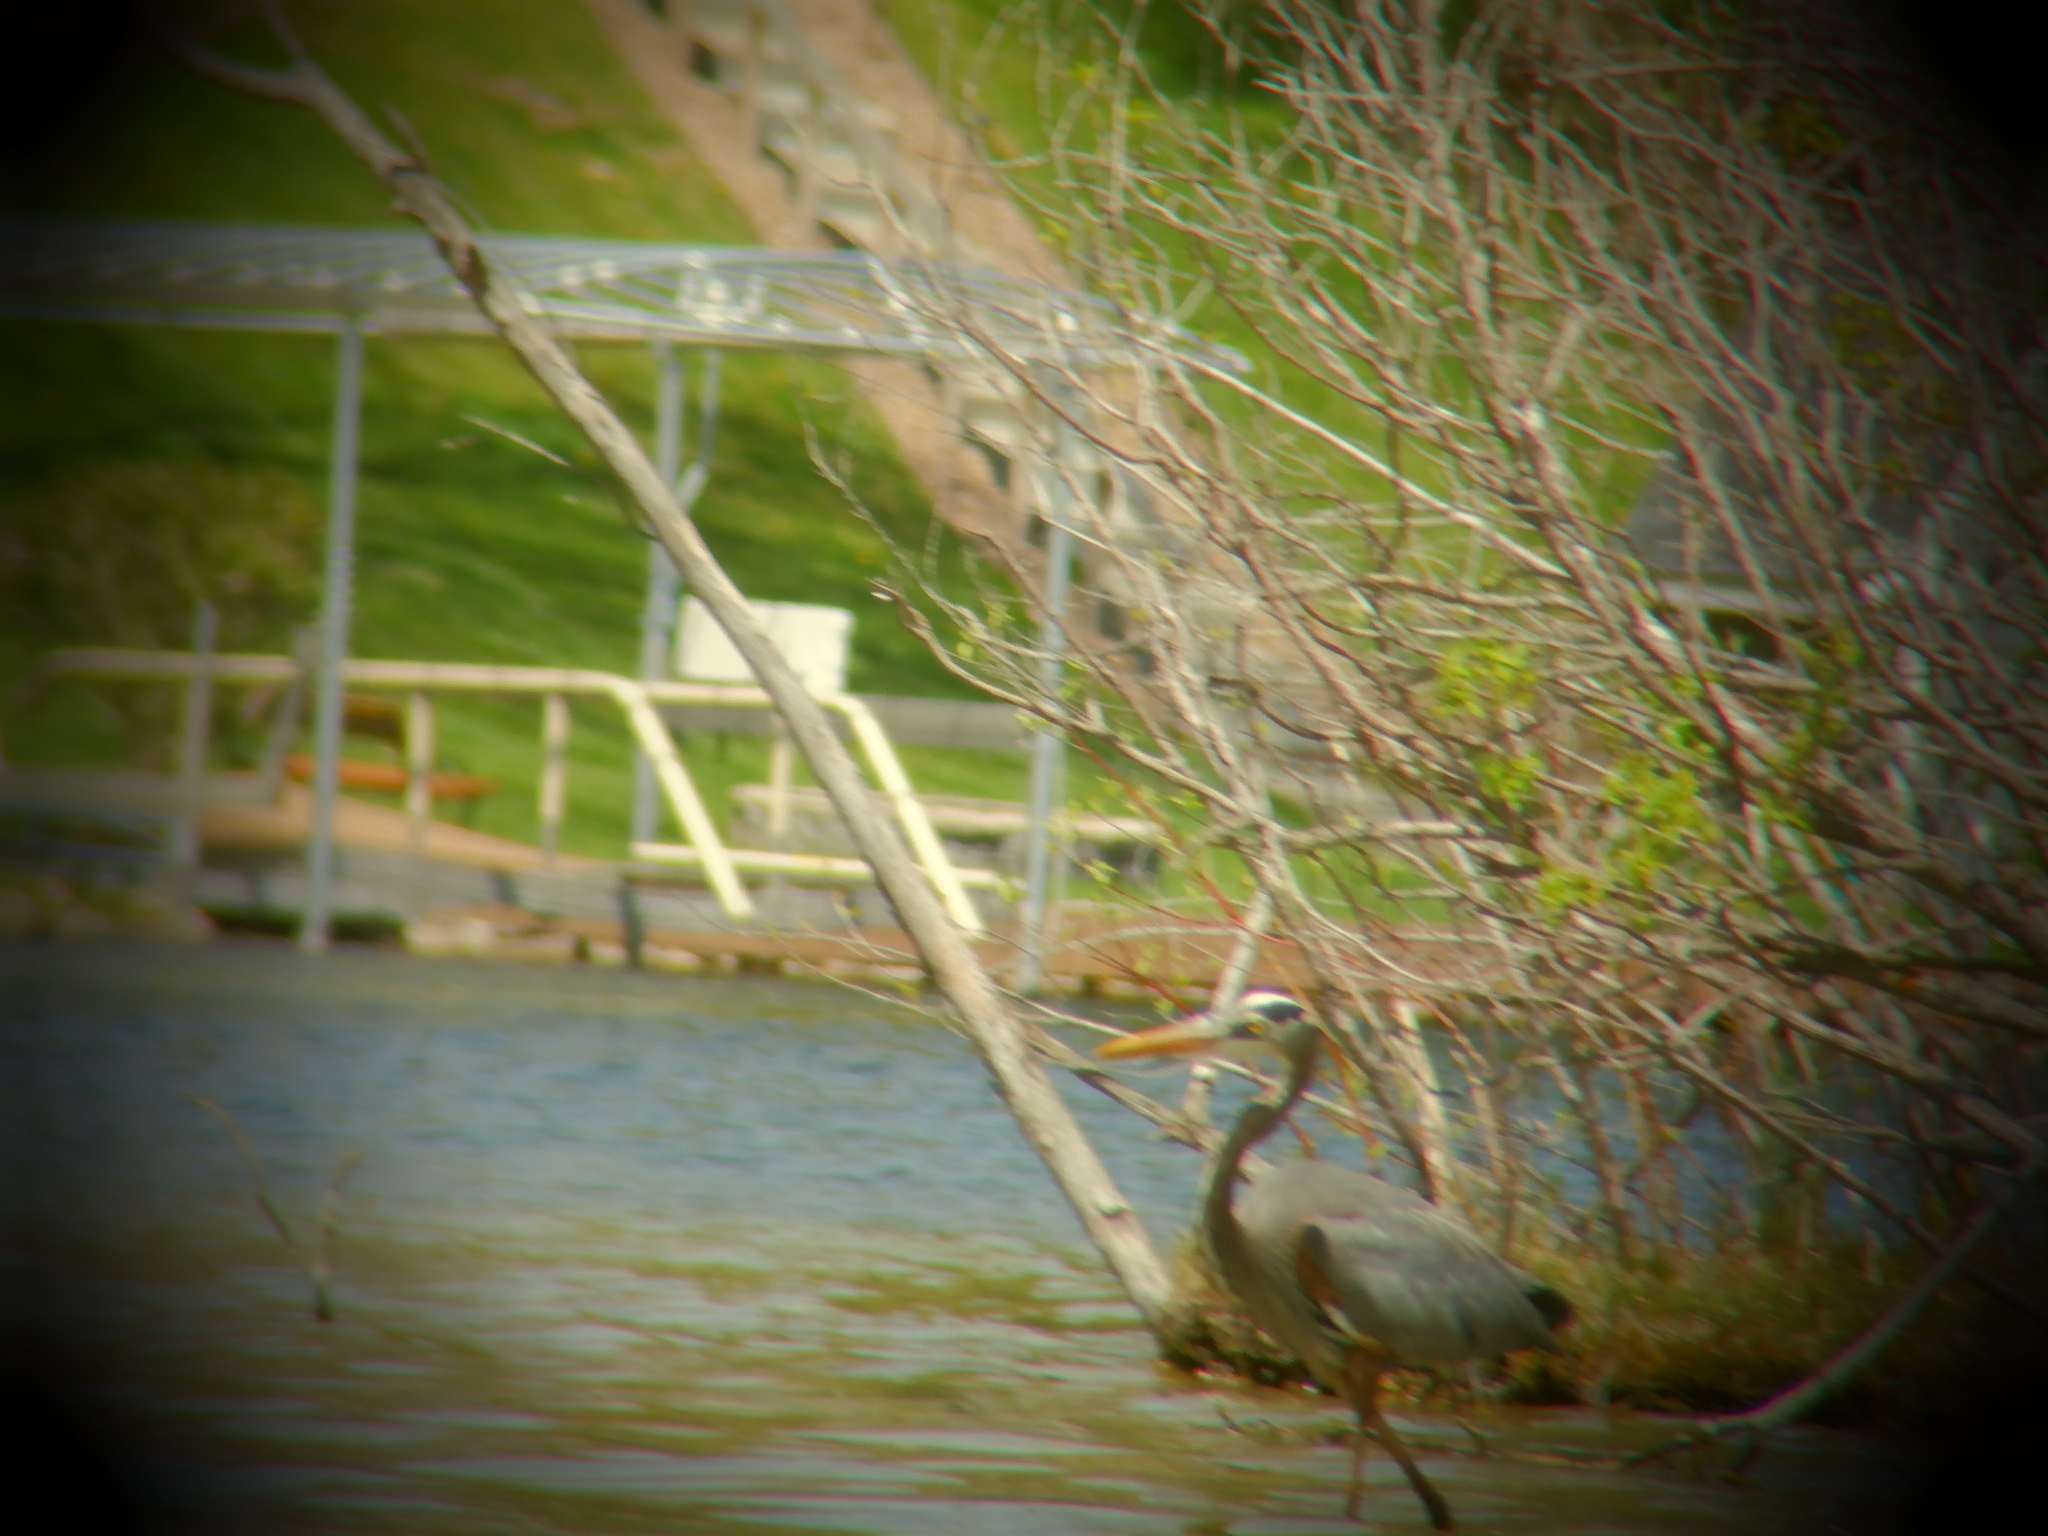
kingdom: Animalia
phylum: Chordata
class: Aves
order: Pelecaniformes
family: Ardeidae
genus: Ardea
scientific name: Ardea herodias
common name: Great blue heron
